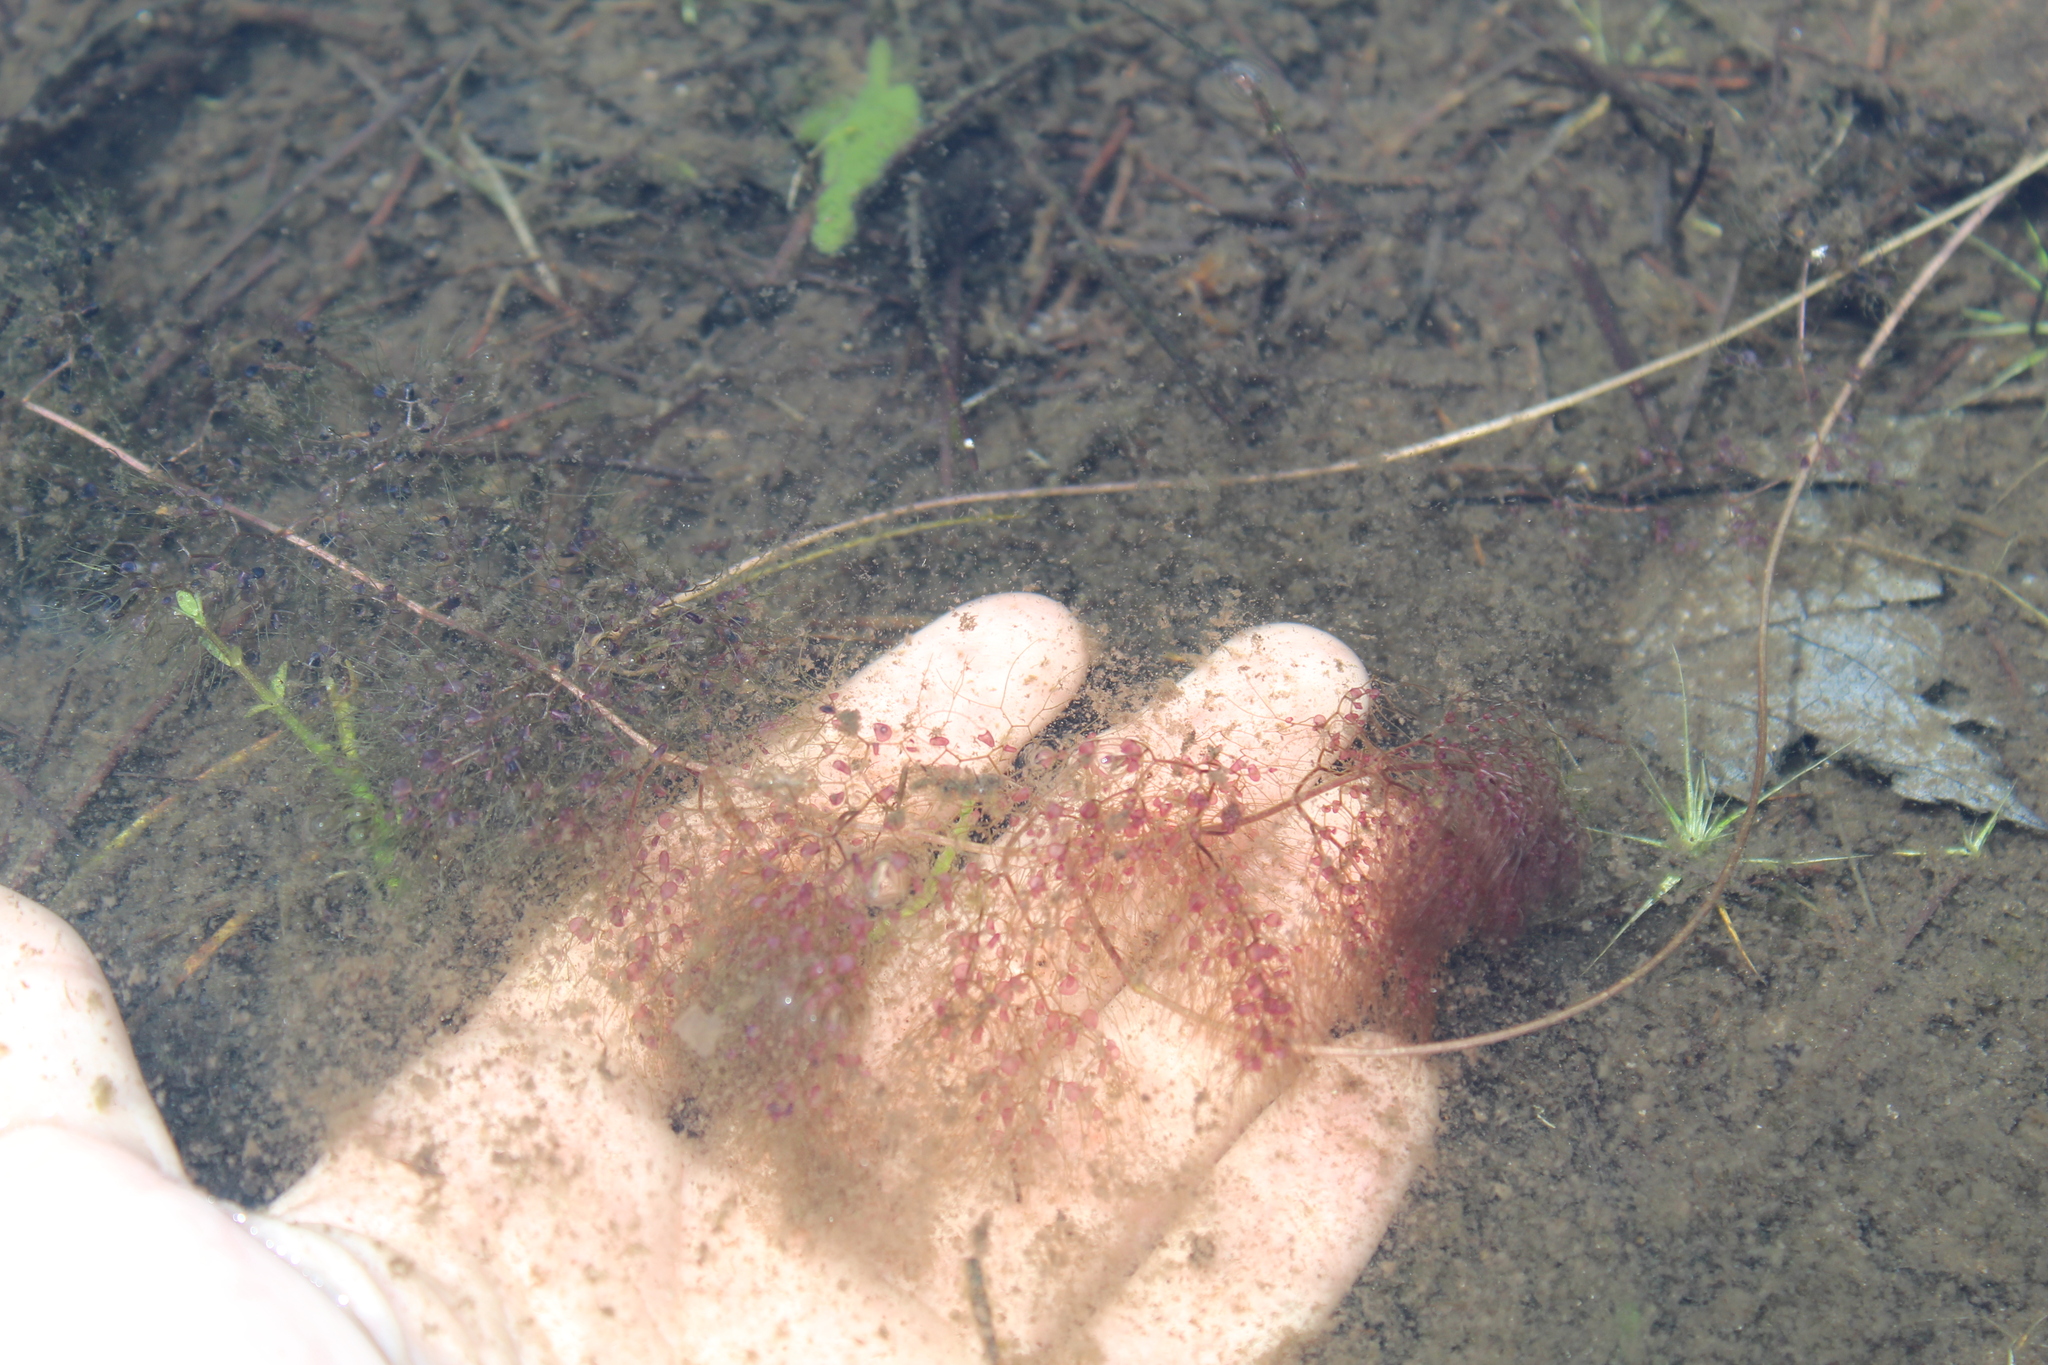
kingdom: Plantae
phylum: Tracheophyta
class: Magnoliopsida
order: Lamiales
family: Lentibulariaceae
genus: Utricularia
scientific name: Utricularia inflata
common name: Floating bladderwort
